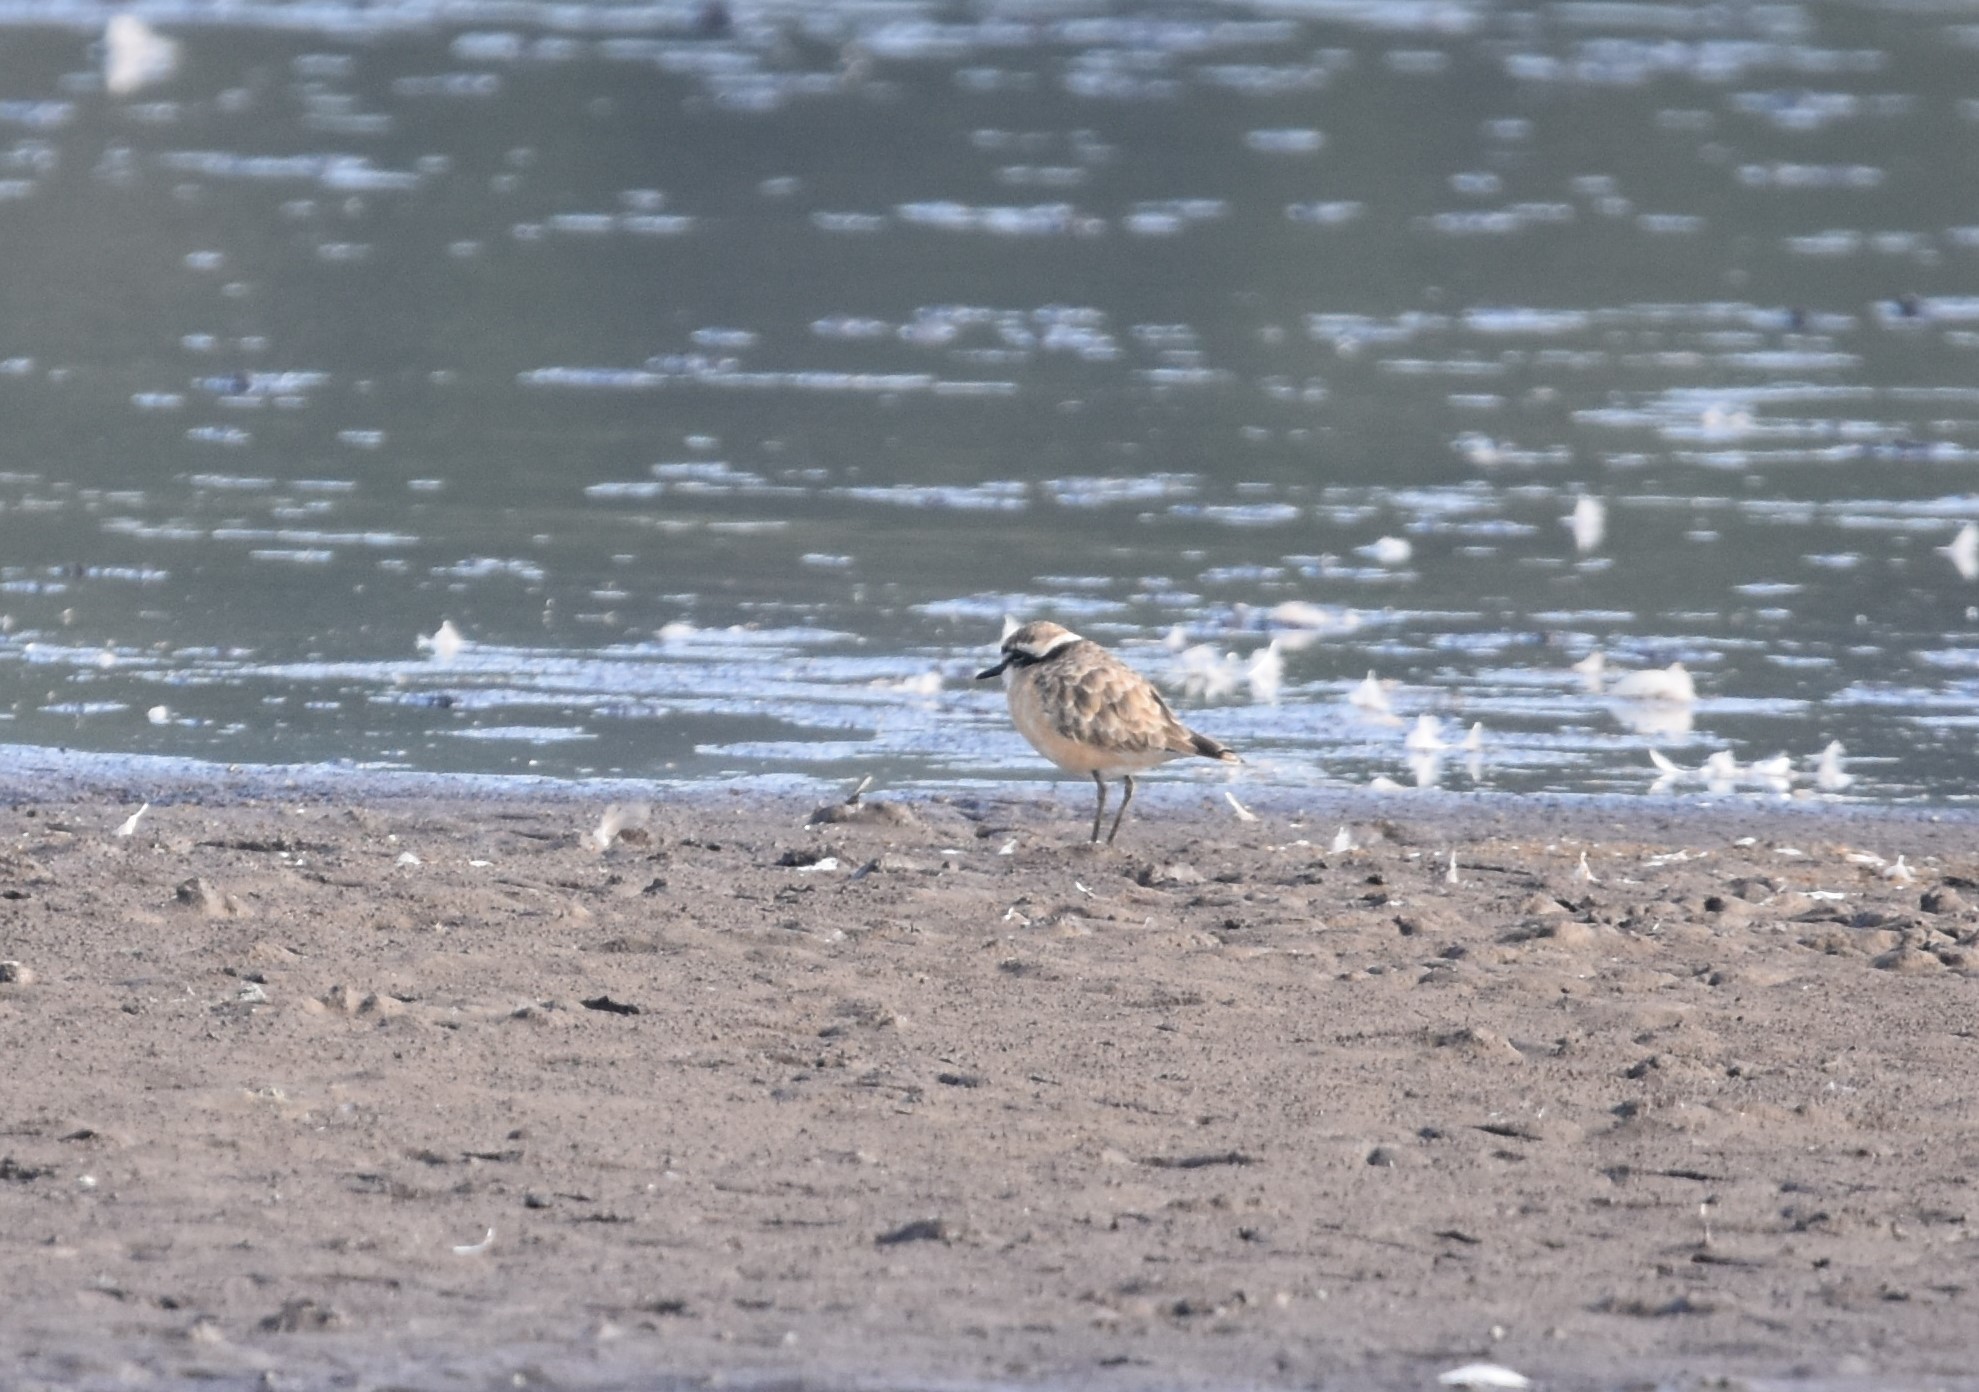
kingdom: Animalia
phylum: Chordata
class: Aves
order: Charadriiformes
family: Charadriidae
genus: Anarhynchus
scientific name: Anarhynchus
